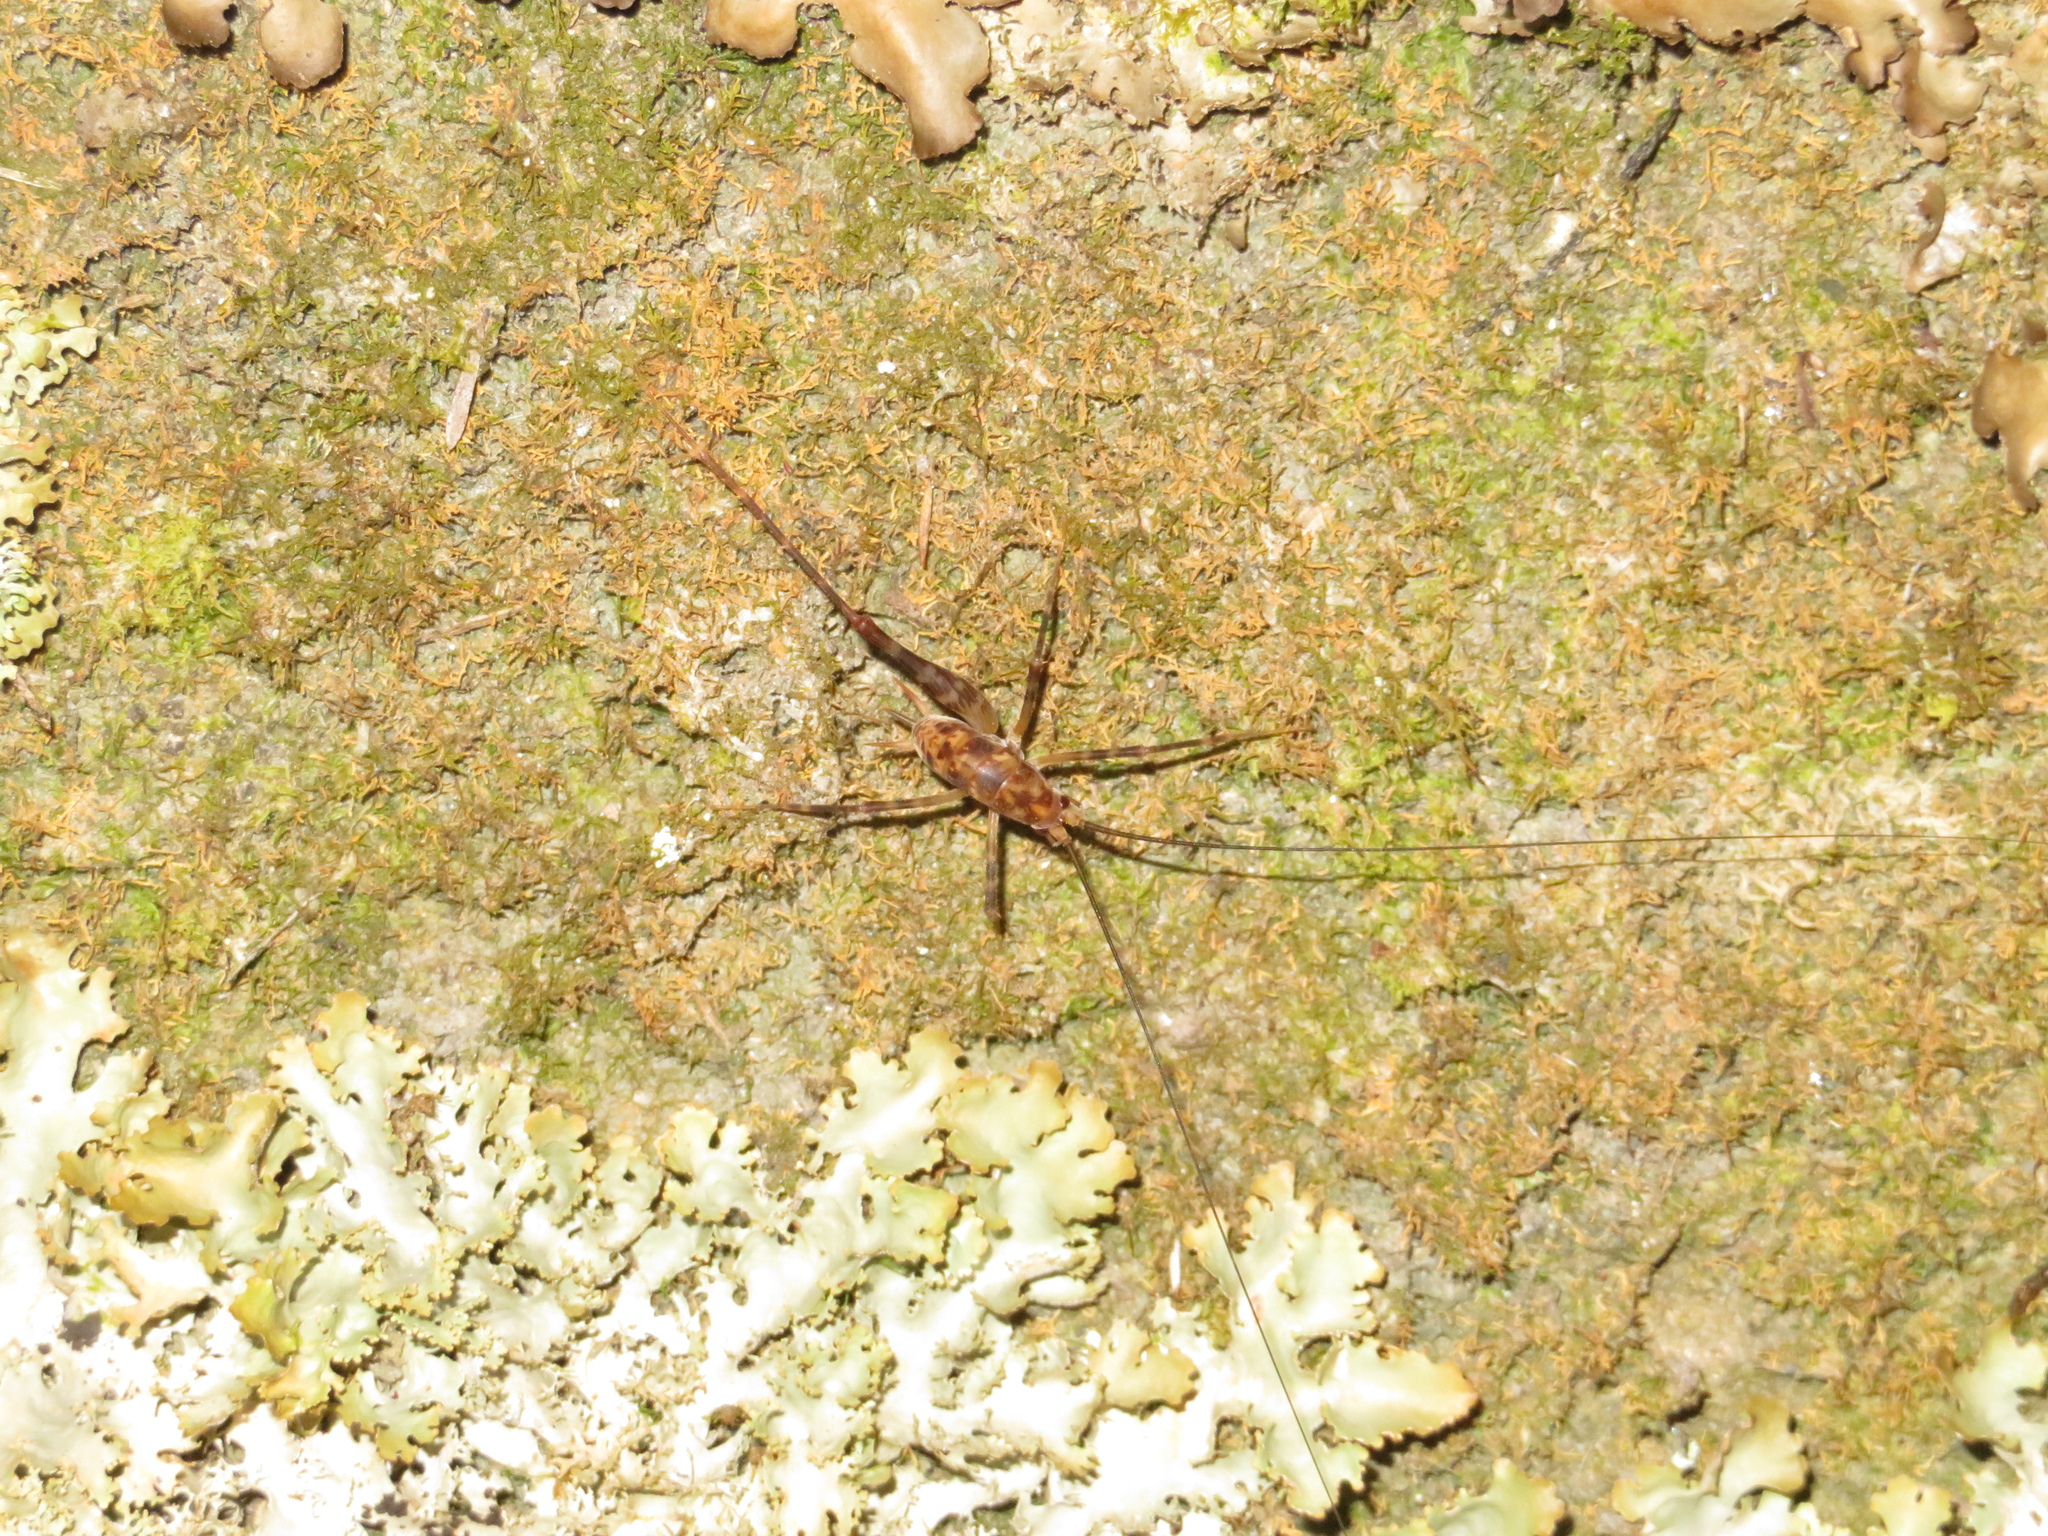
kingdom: Animalia
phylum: Arthropoda
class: Insecta
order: Orthoptera
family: Rhaphidophoridae
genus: Miotopus
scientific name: Miotopus richardsae
